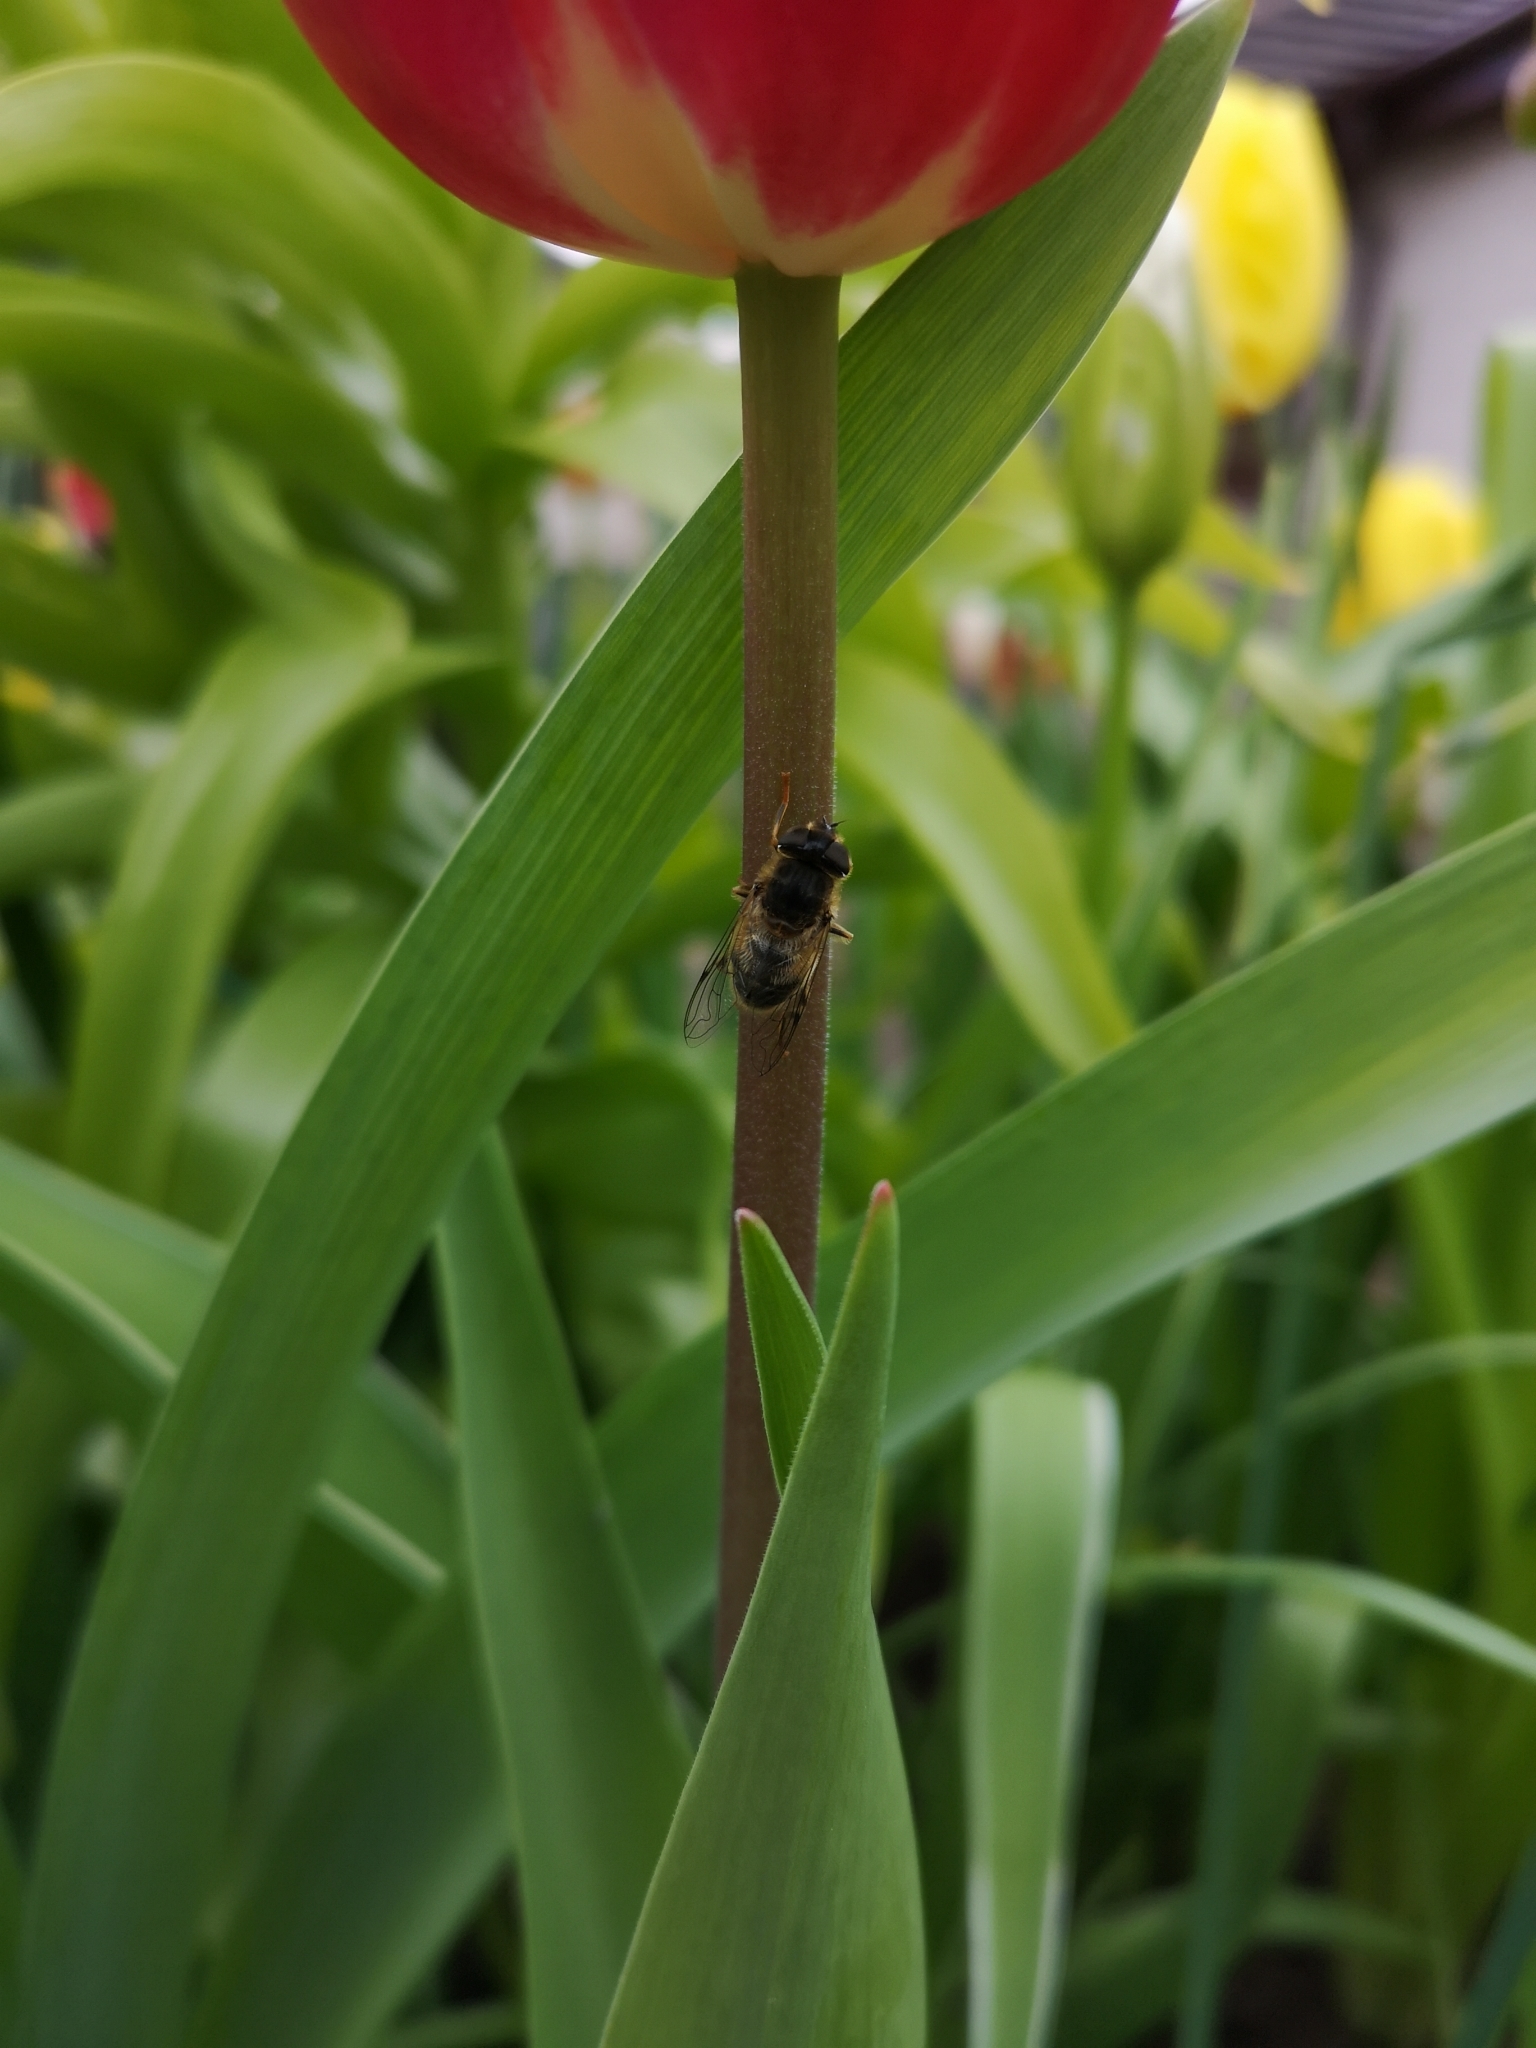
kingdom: Animalia
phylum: Arthropoda
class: Insecta
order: Diptera
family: Syrphidae
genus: Eristalis
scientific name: Eristalis pertinax
